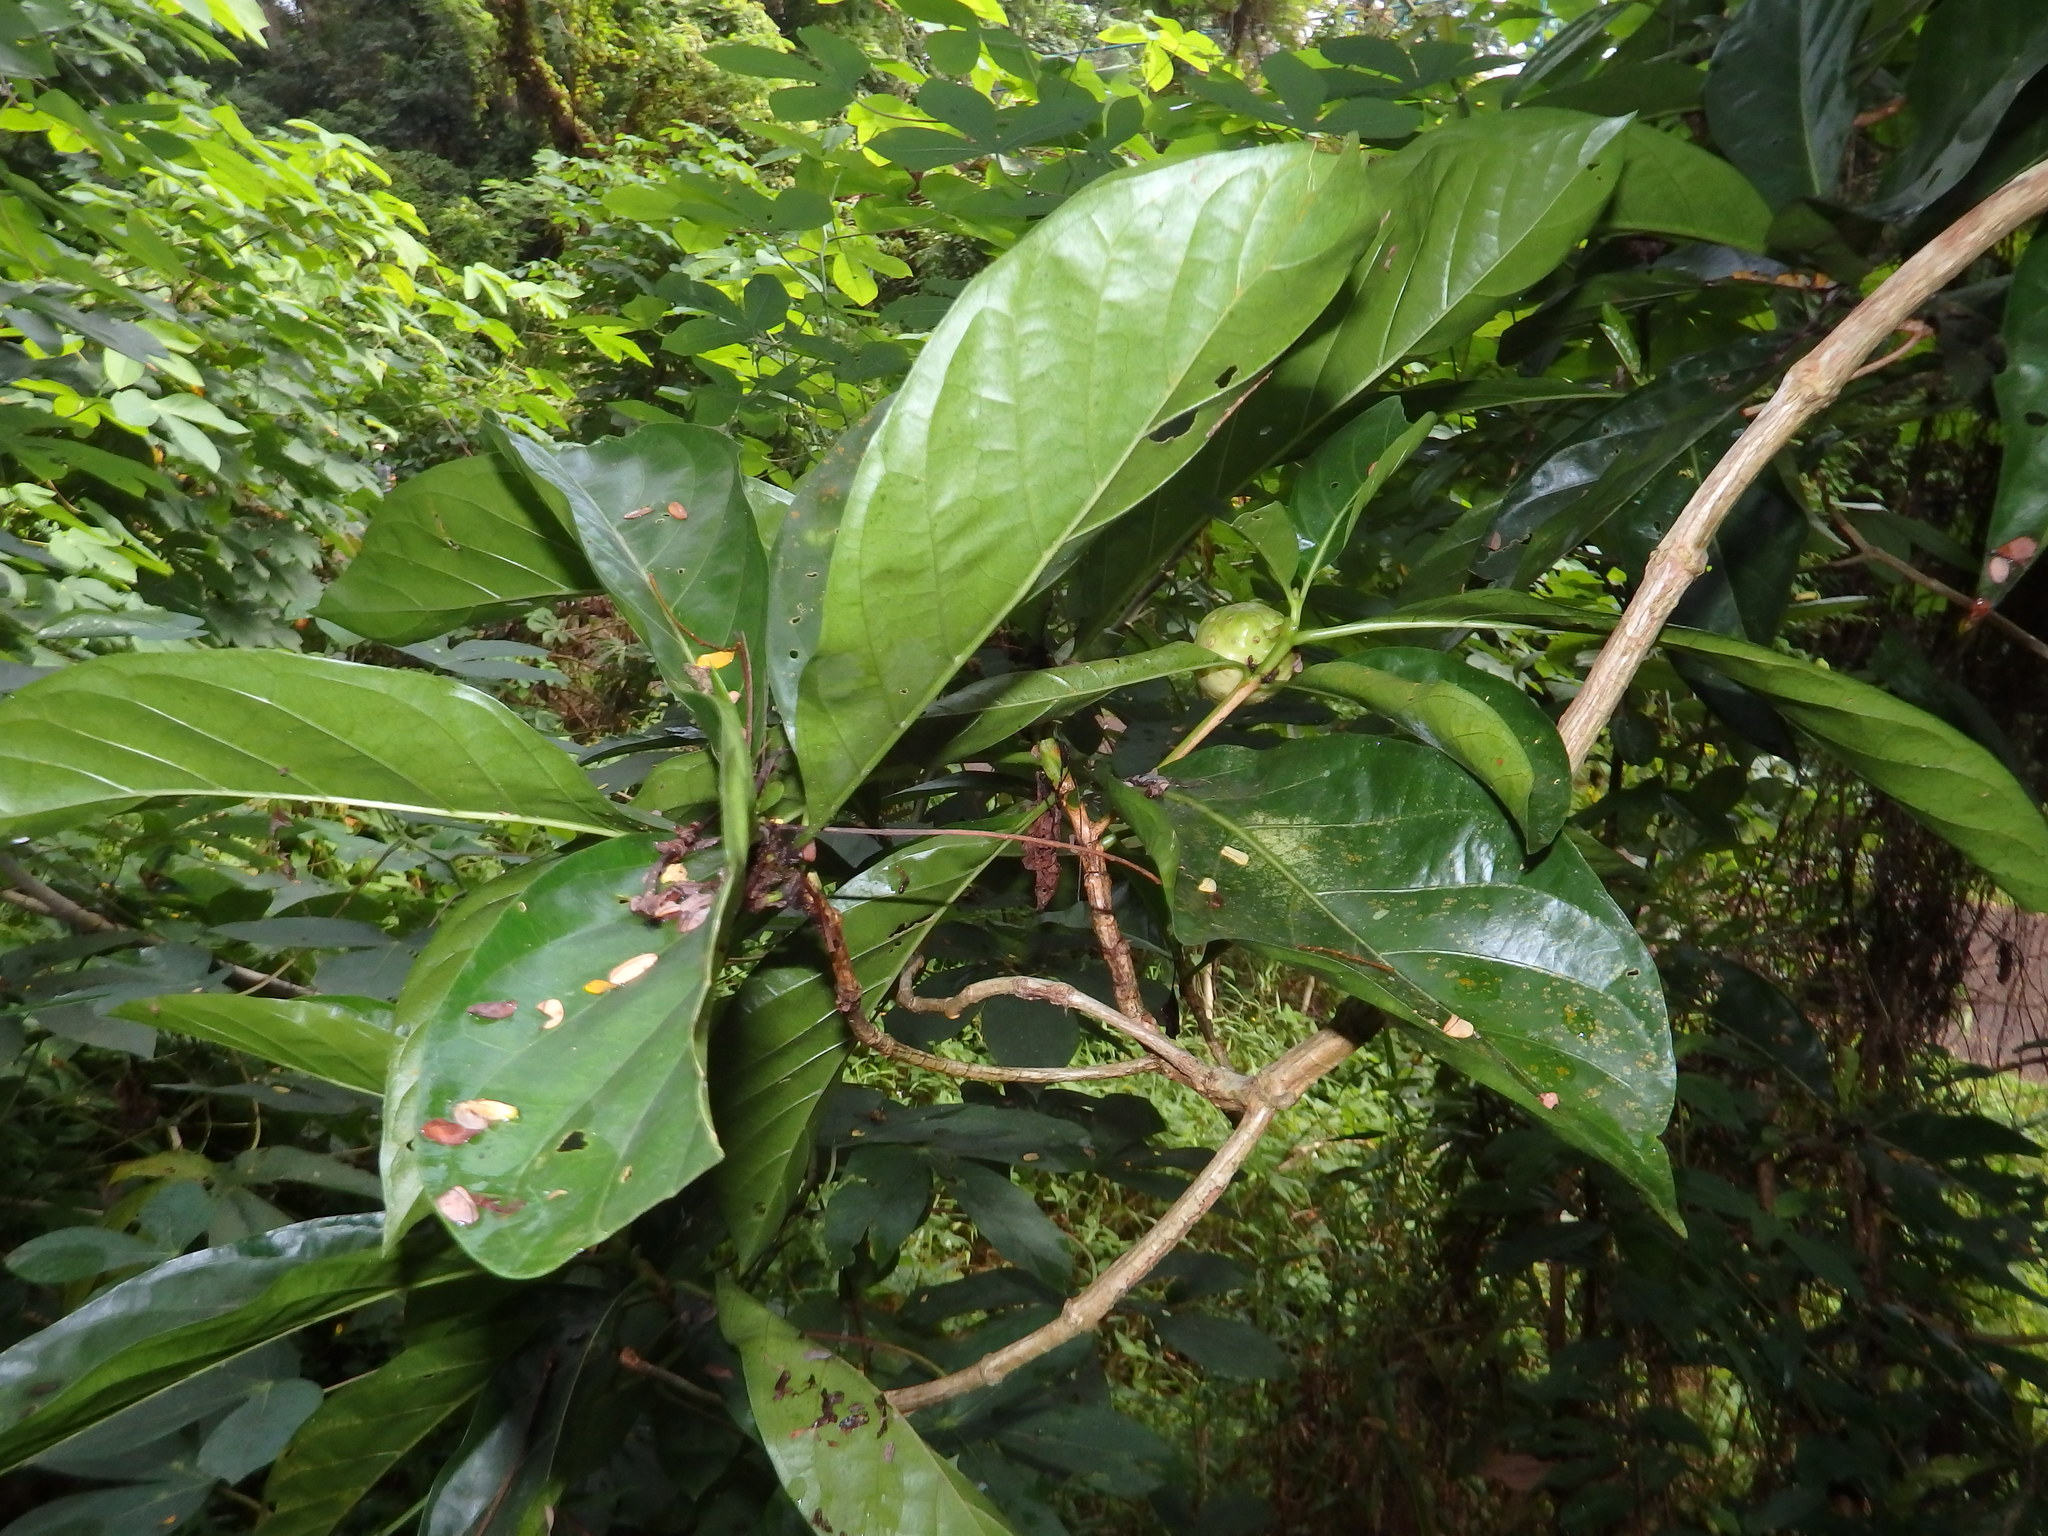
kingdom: Plantae
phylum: Tracheophyta
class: Magnoliopsida
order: Gentianales
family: Rubiaceae
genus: Morinda
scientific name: Morinda citrifolia
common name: Indian-mulberry
